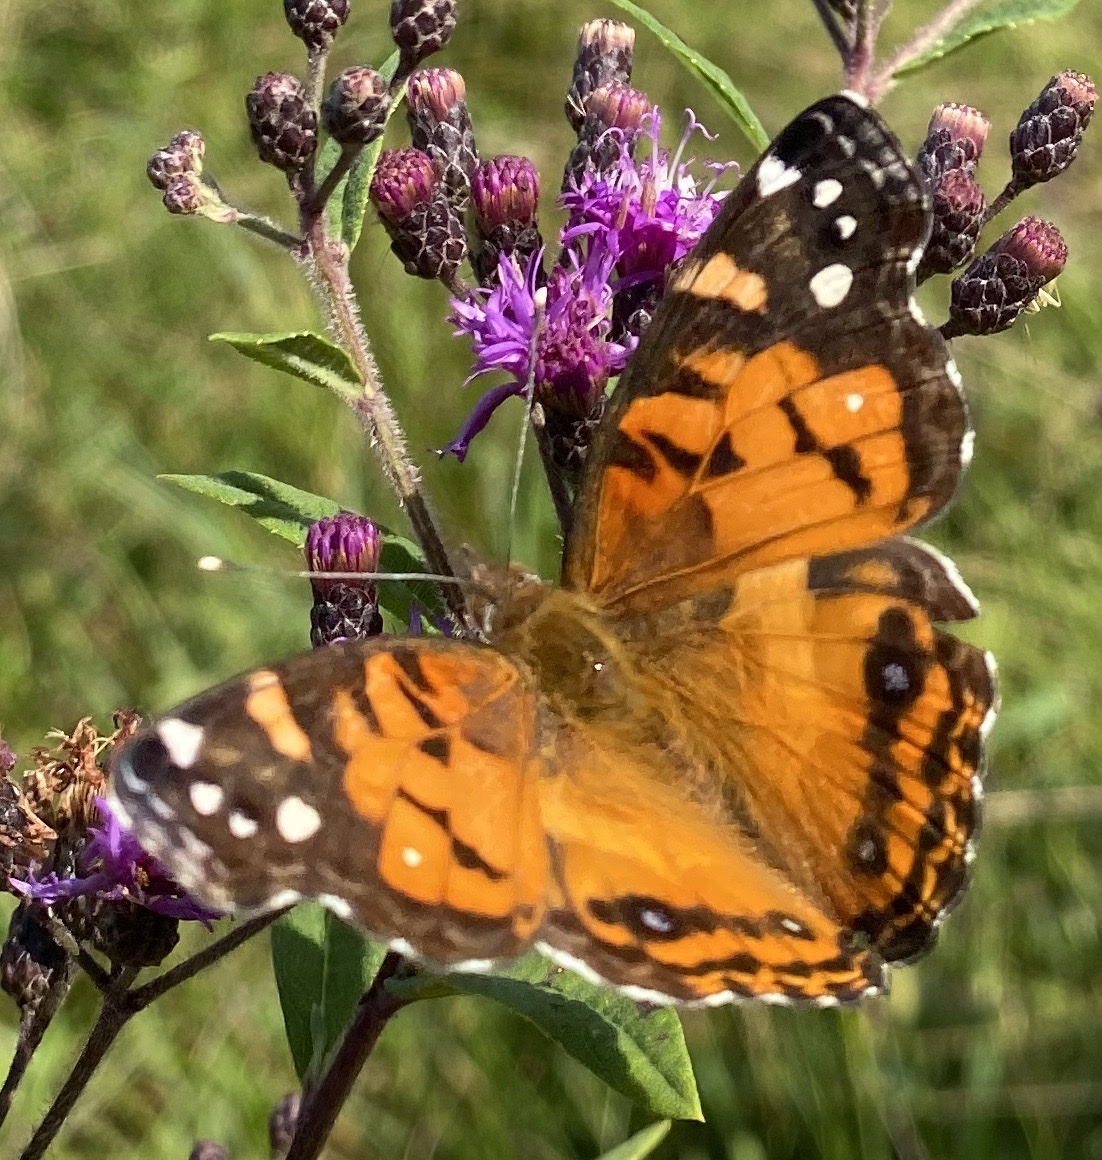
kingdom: Animalia
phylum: Arthropoda
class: Insecta
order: Lepidoptera
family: Nymphalidae
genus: Vanessa
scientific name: Vanessa virginiensis
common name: American lady
